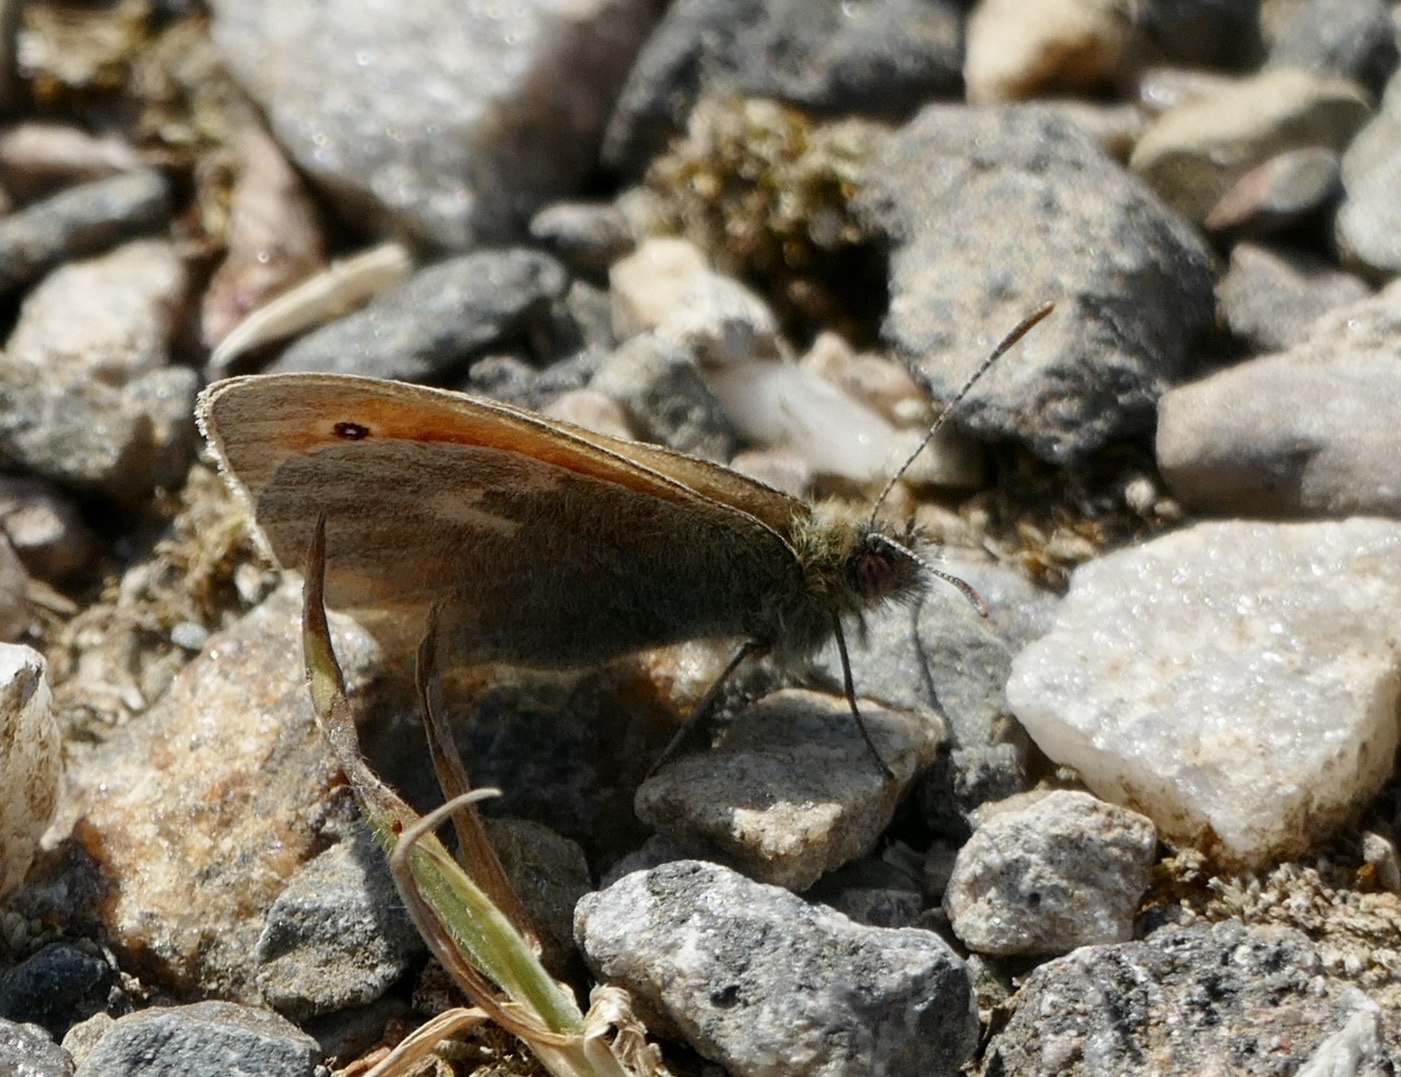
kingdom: Animalia
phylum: Arthropoda
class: Insecta
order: Lepidoptera
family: Nymphalidae
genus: Coenonympha
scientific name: Coenonympha pamphilus
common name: Small heath
